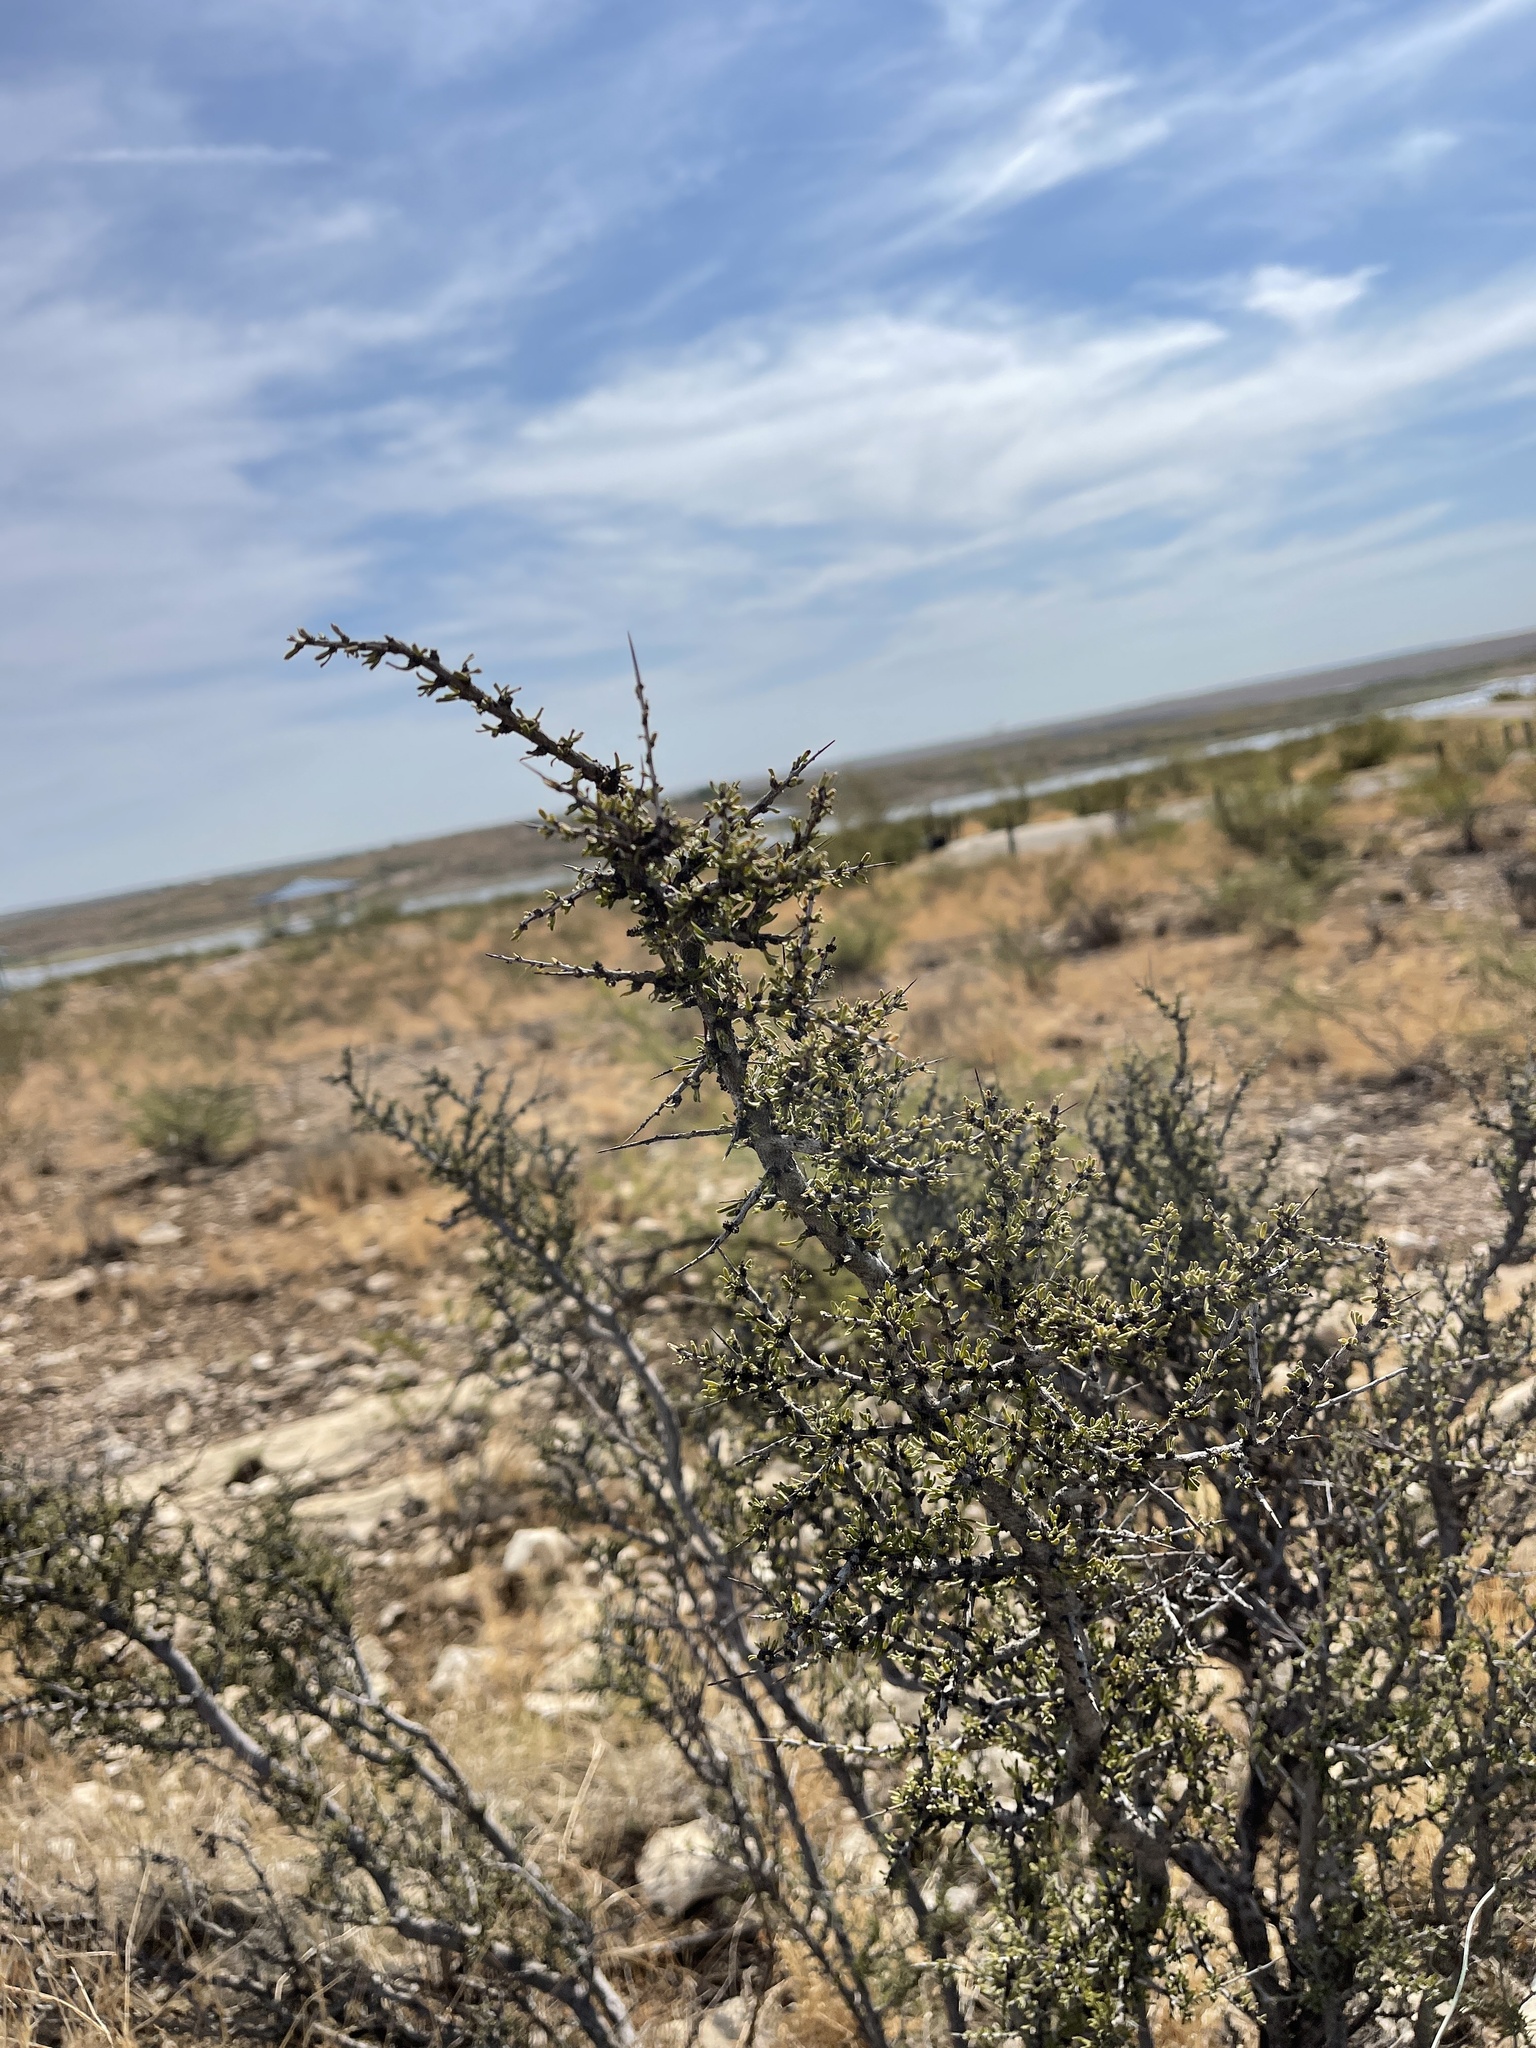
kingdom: Plantae
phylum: Tracheophyta
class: Magnoliopsida
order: Rosales
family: Rhamnaceae
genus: Condalia
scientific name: Condalia ericoides
